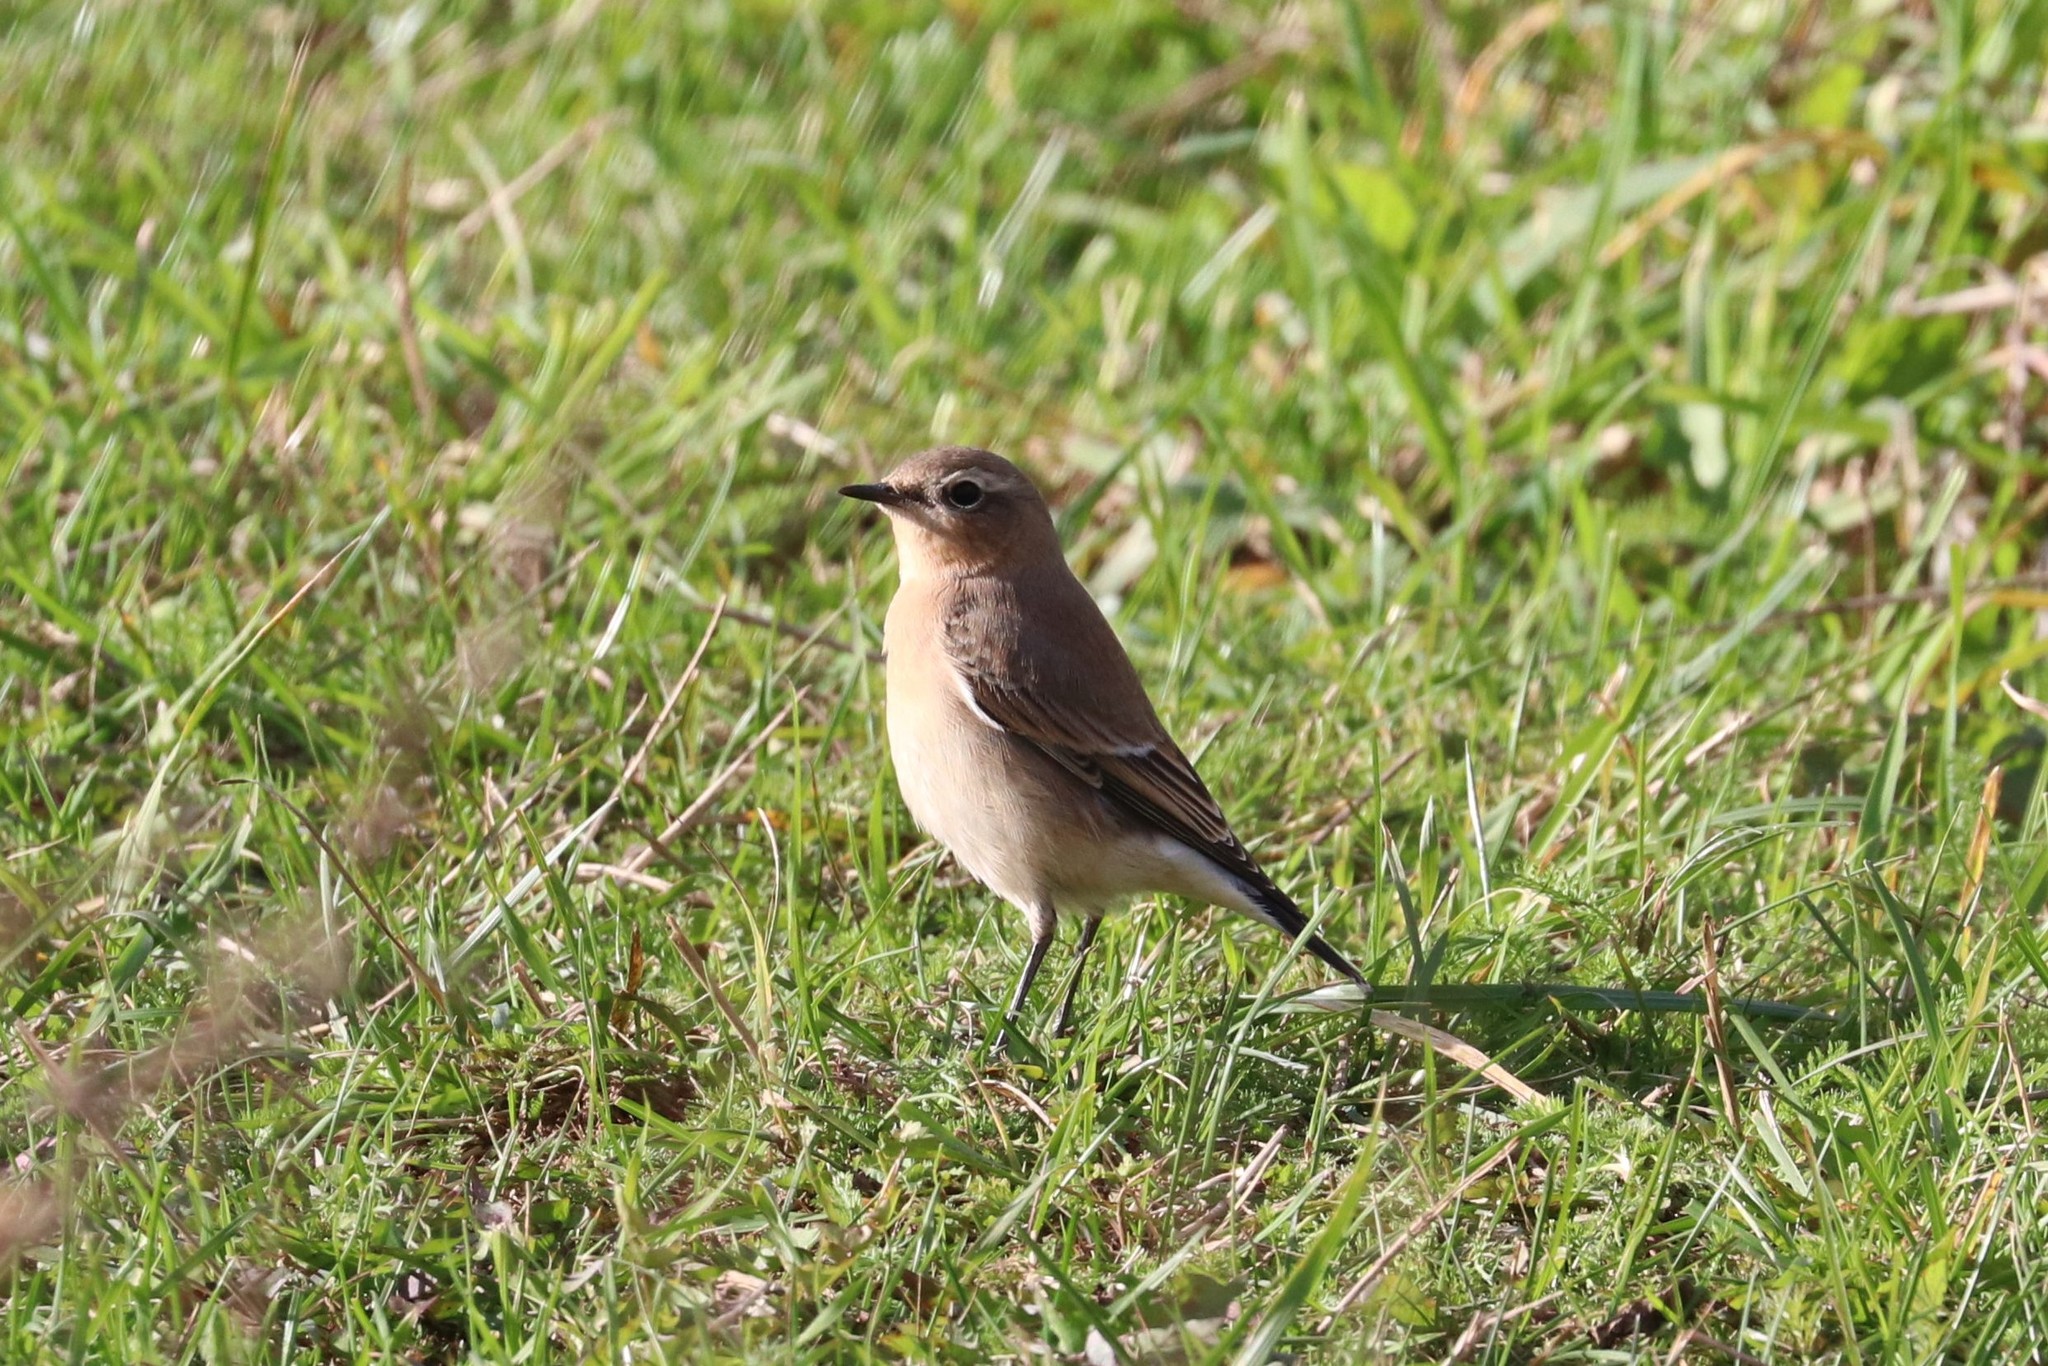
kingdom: Animalia
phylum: Chordata
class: Aves
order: Passeriformes
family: Muscicapidae
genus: Oenanthe
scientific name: Oenanthe oenanthe
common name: Northern wheatear
